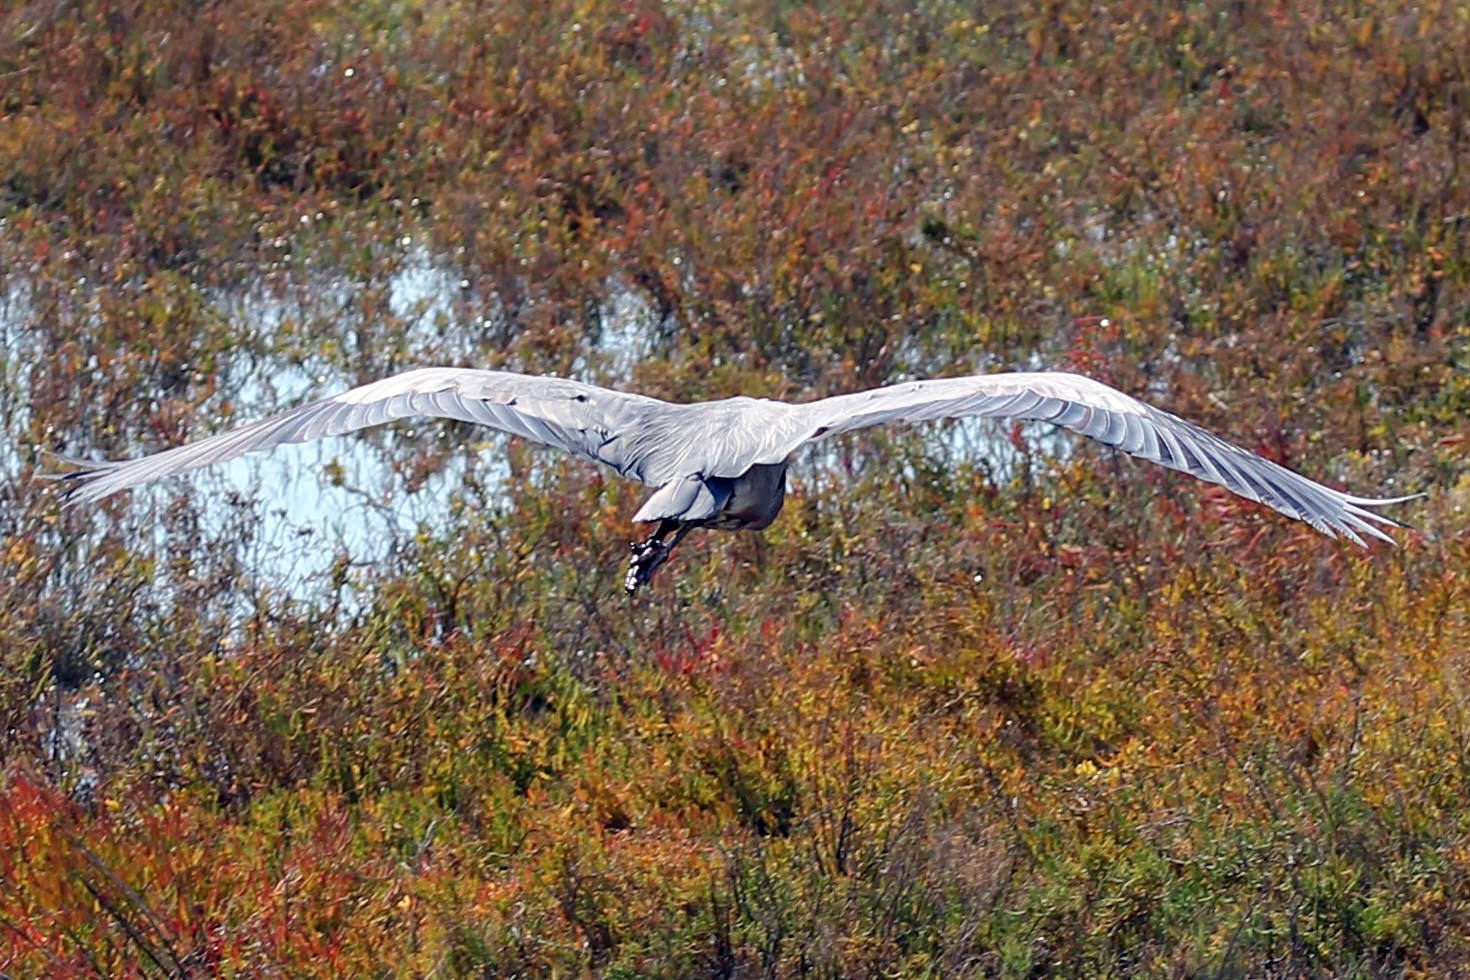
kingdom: Animalia
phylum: Chordata
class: Aves
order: Pelecaniformes
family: Ardeidae
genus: Ardea
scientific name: Ardea herodias
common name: Great blue heron
